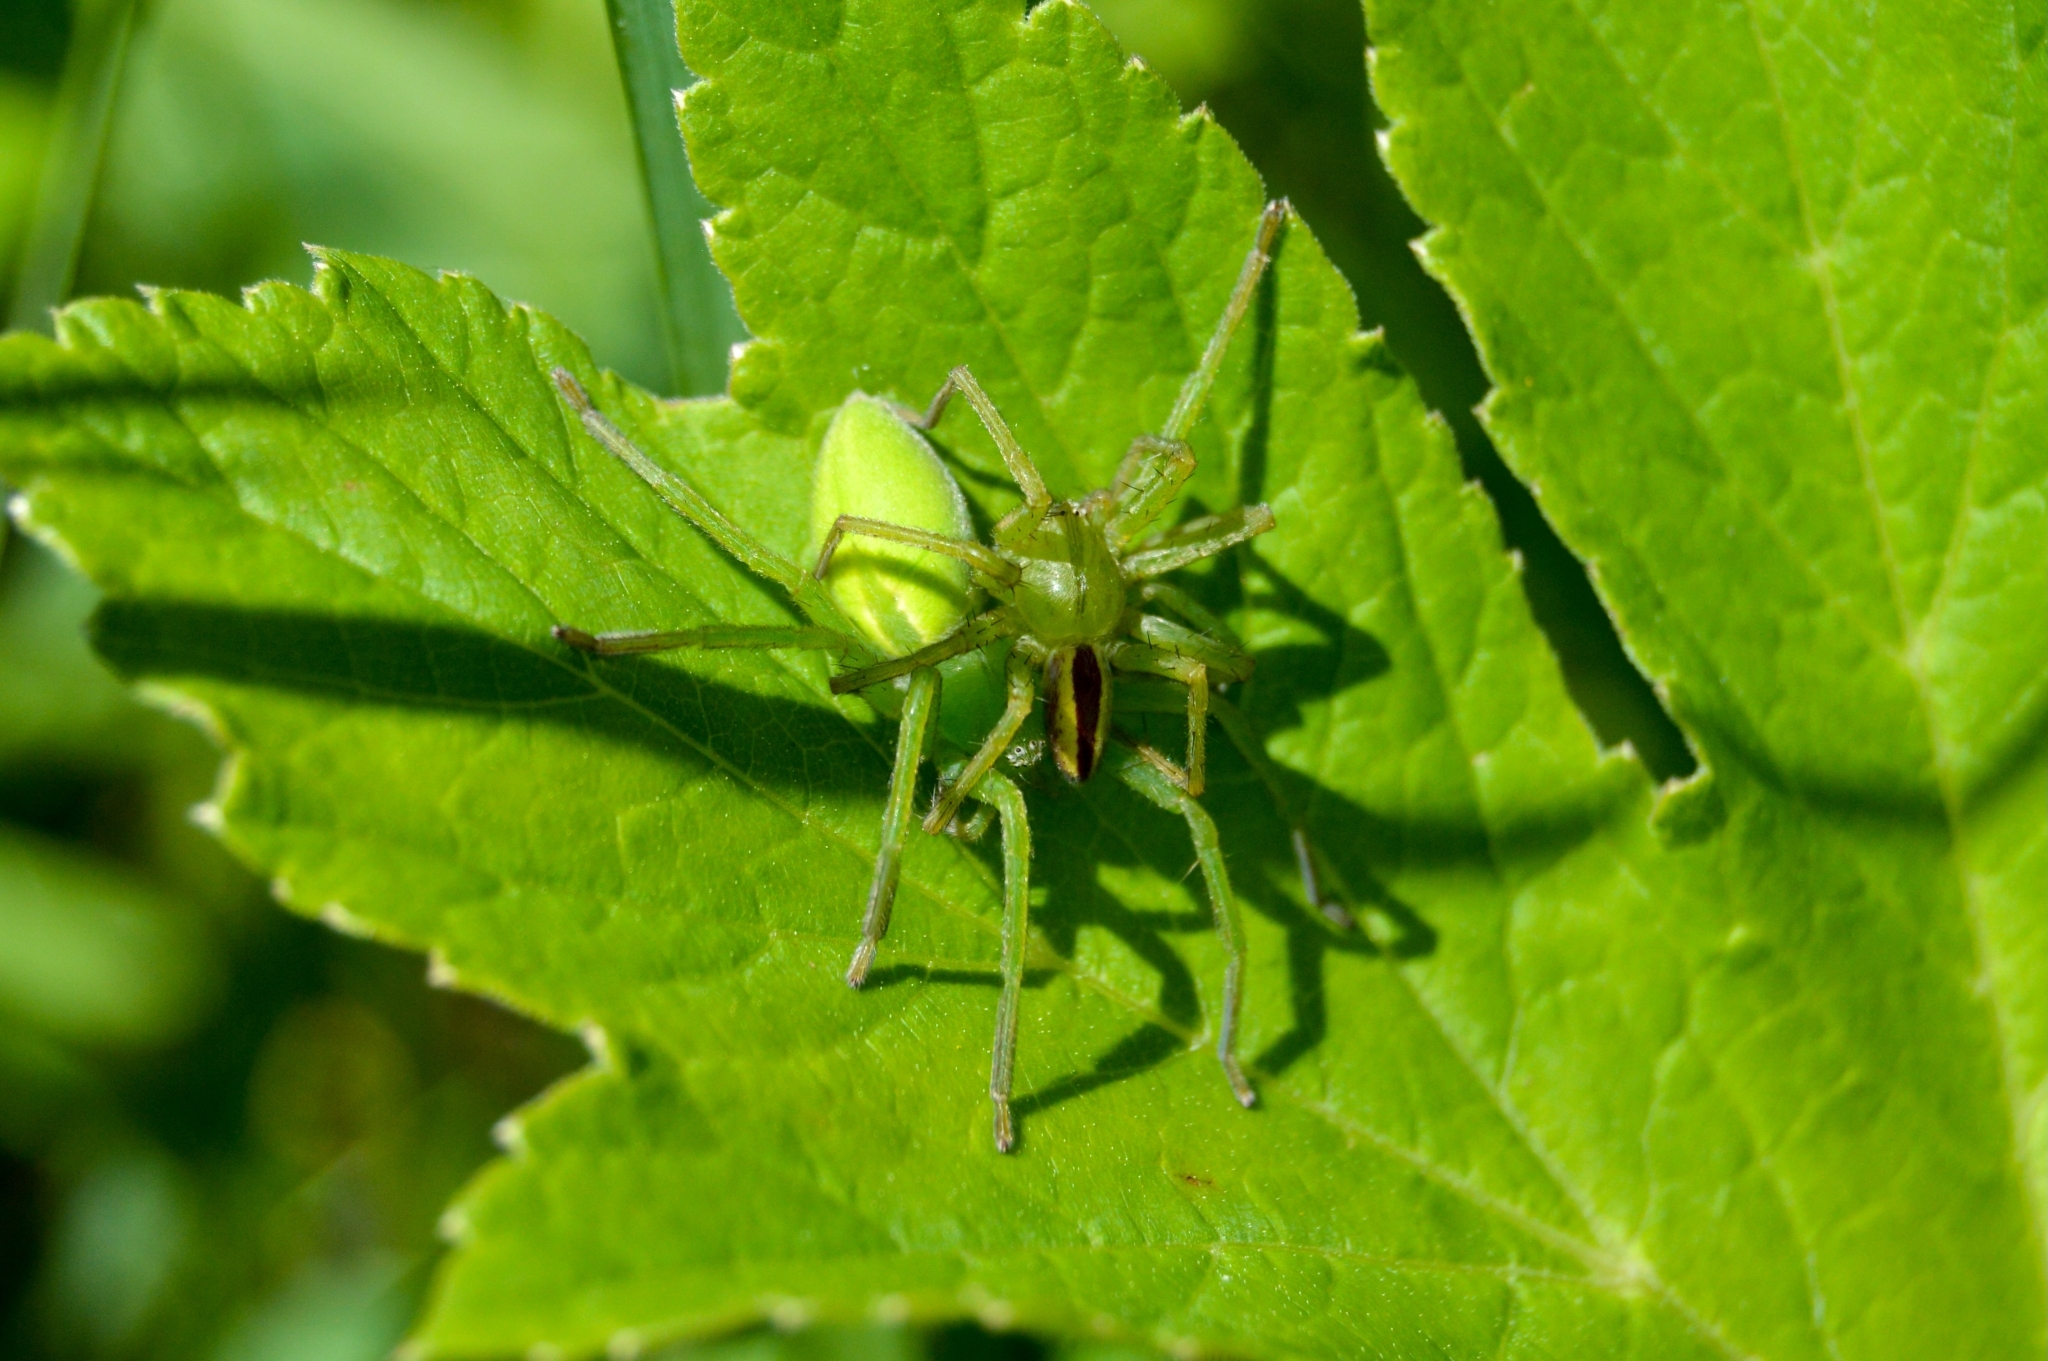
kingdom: Animalia
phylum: Arthropoda
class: Arachnida
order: Araneae
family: Sparassidae
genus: Micrommata
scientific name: Micrommata virescens
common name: Green spider
